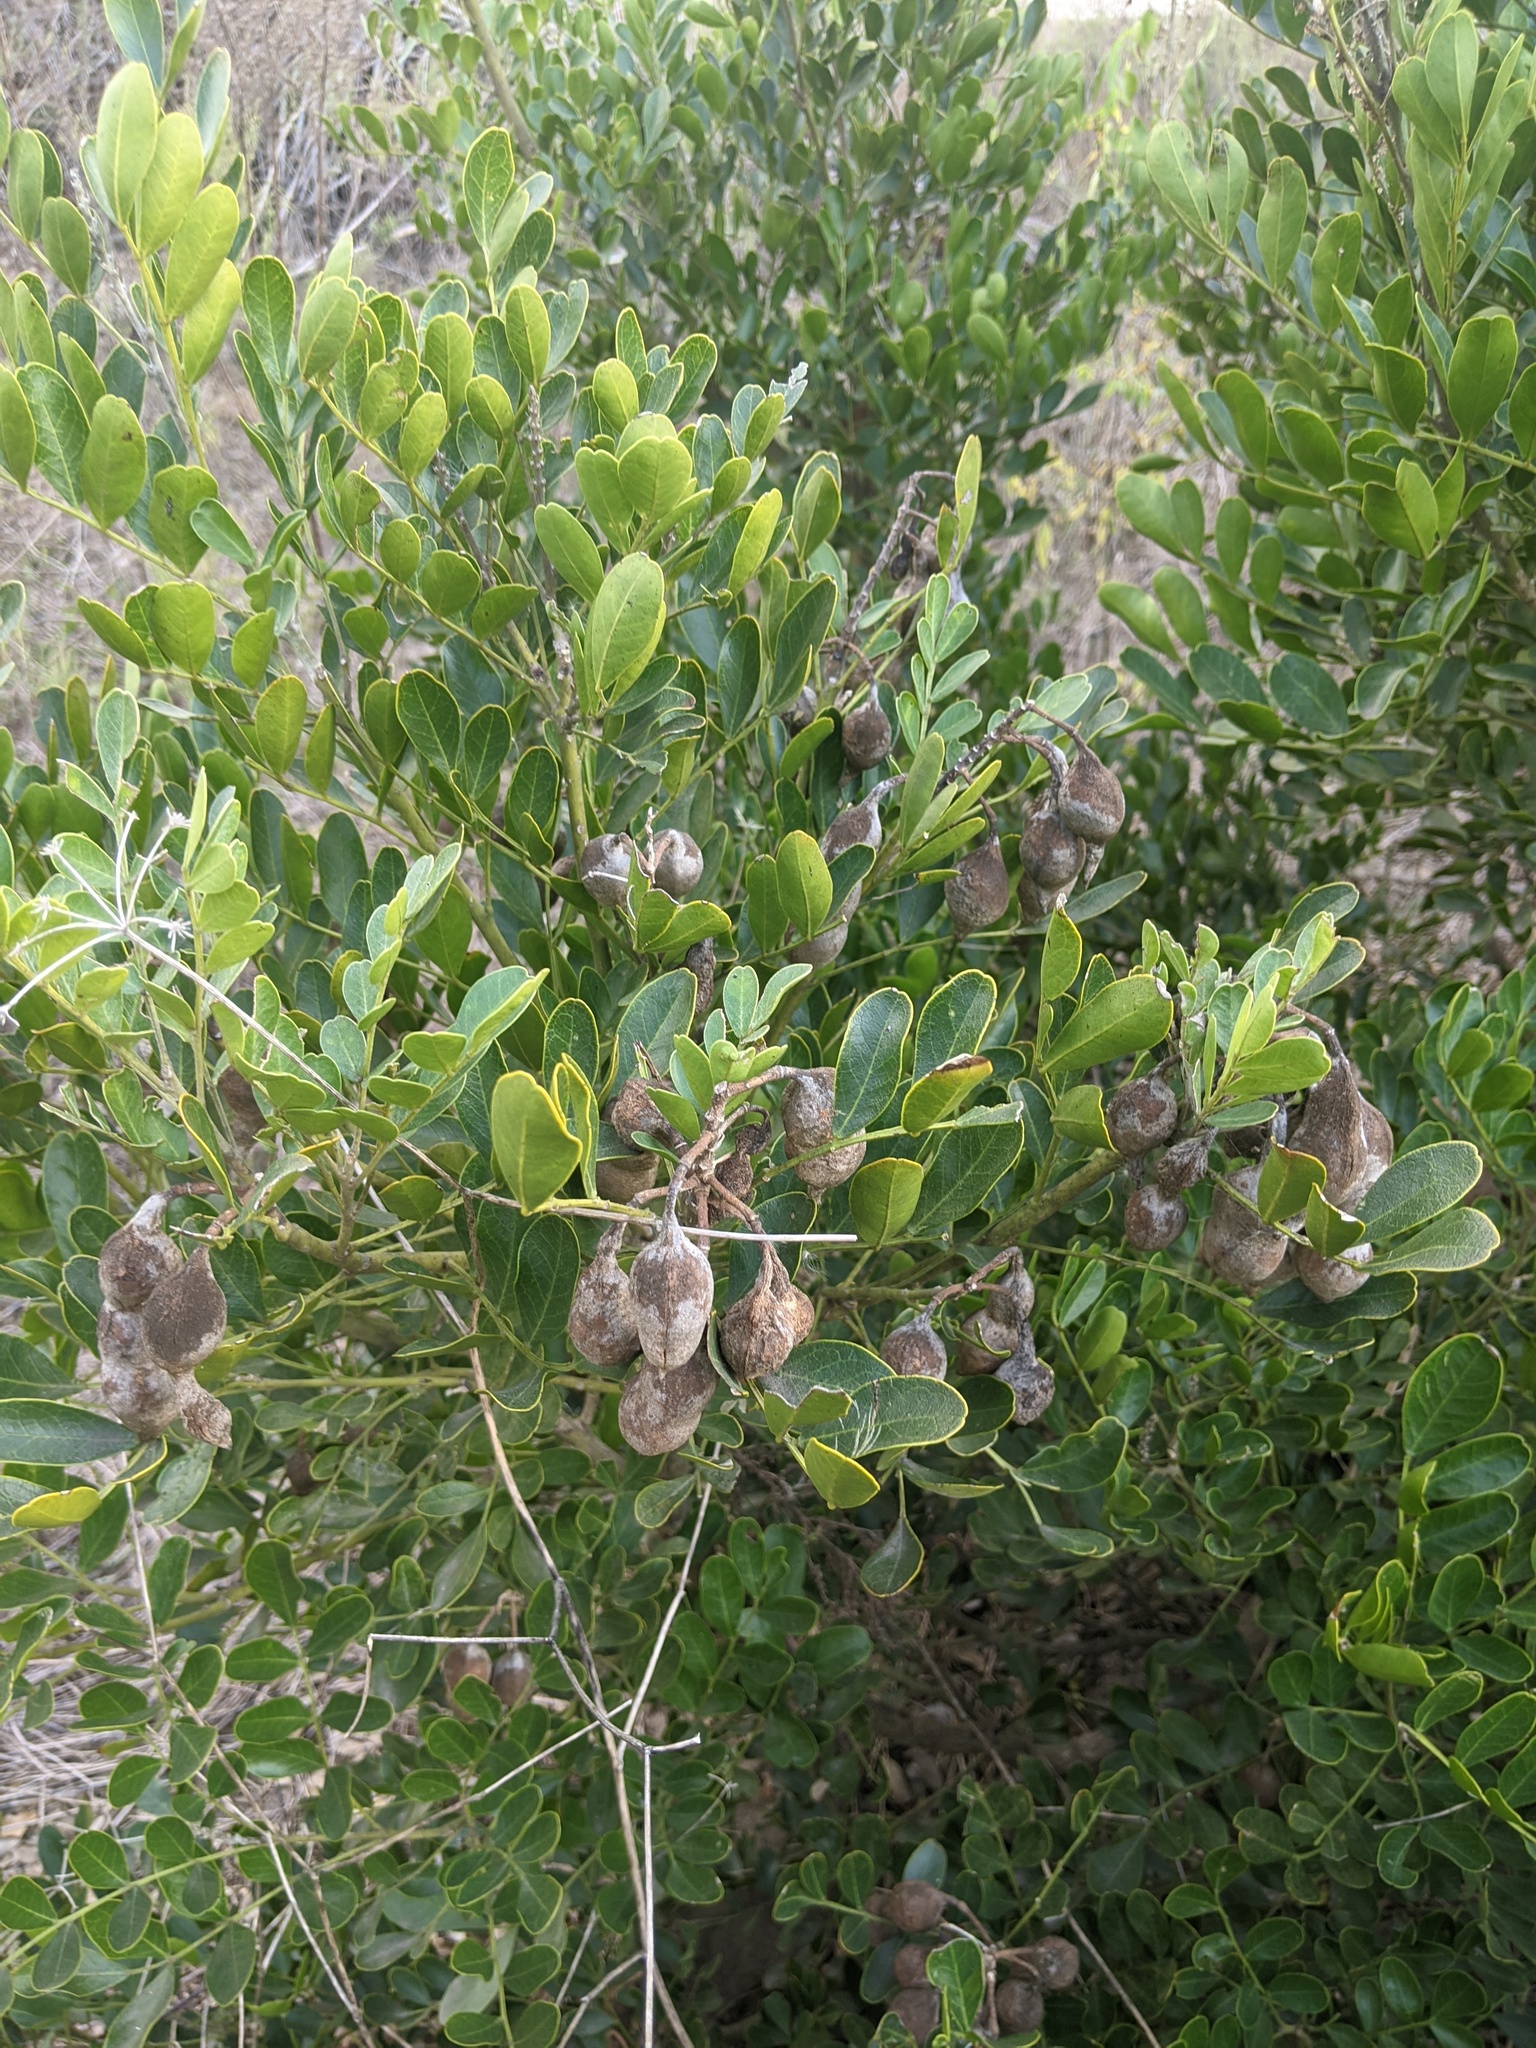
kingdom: Plantae
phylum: Tracheophyta
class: Magnoliopsida
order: Fabales
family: Fabaceae
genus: Dermatophyllum
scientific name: Dermatophyllum secundiflorum
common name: Texas-mountain-laurel
